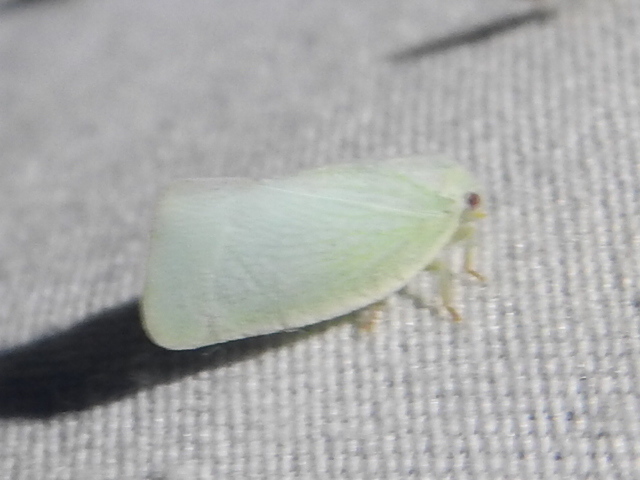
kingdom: Animalia
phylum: Arthropoda
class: Insecta
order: Hemiptera
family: Flatidae
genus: Flatormenis
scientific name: Flatormenis proxima
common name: Northern flatid planthopper
